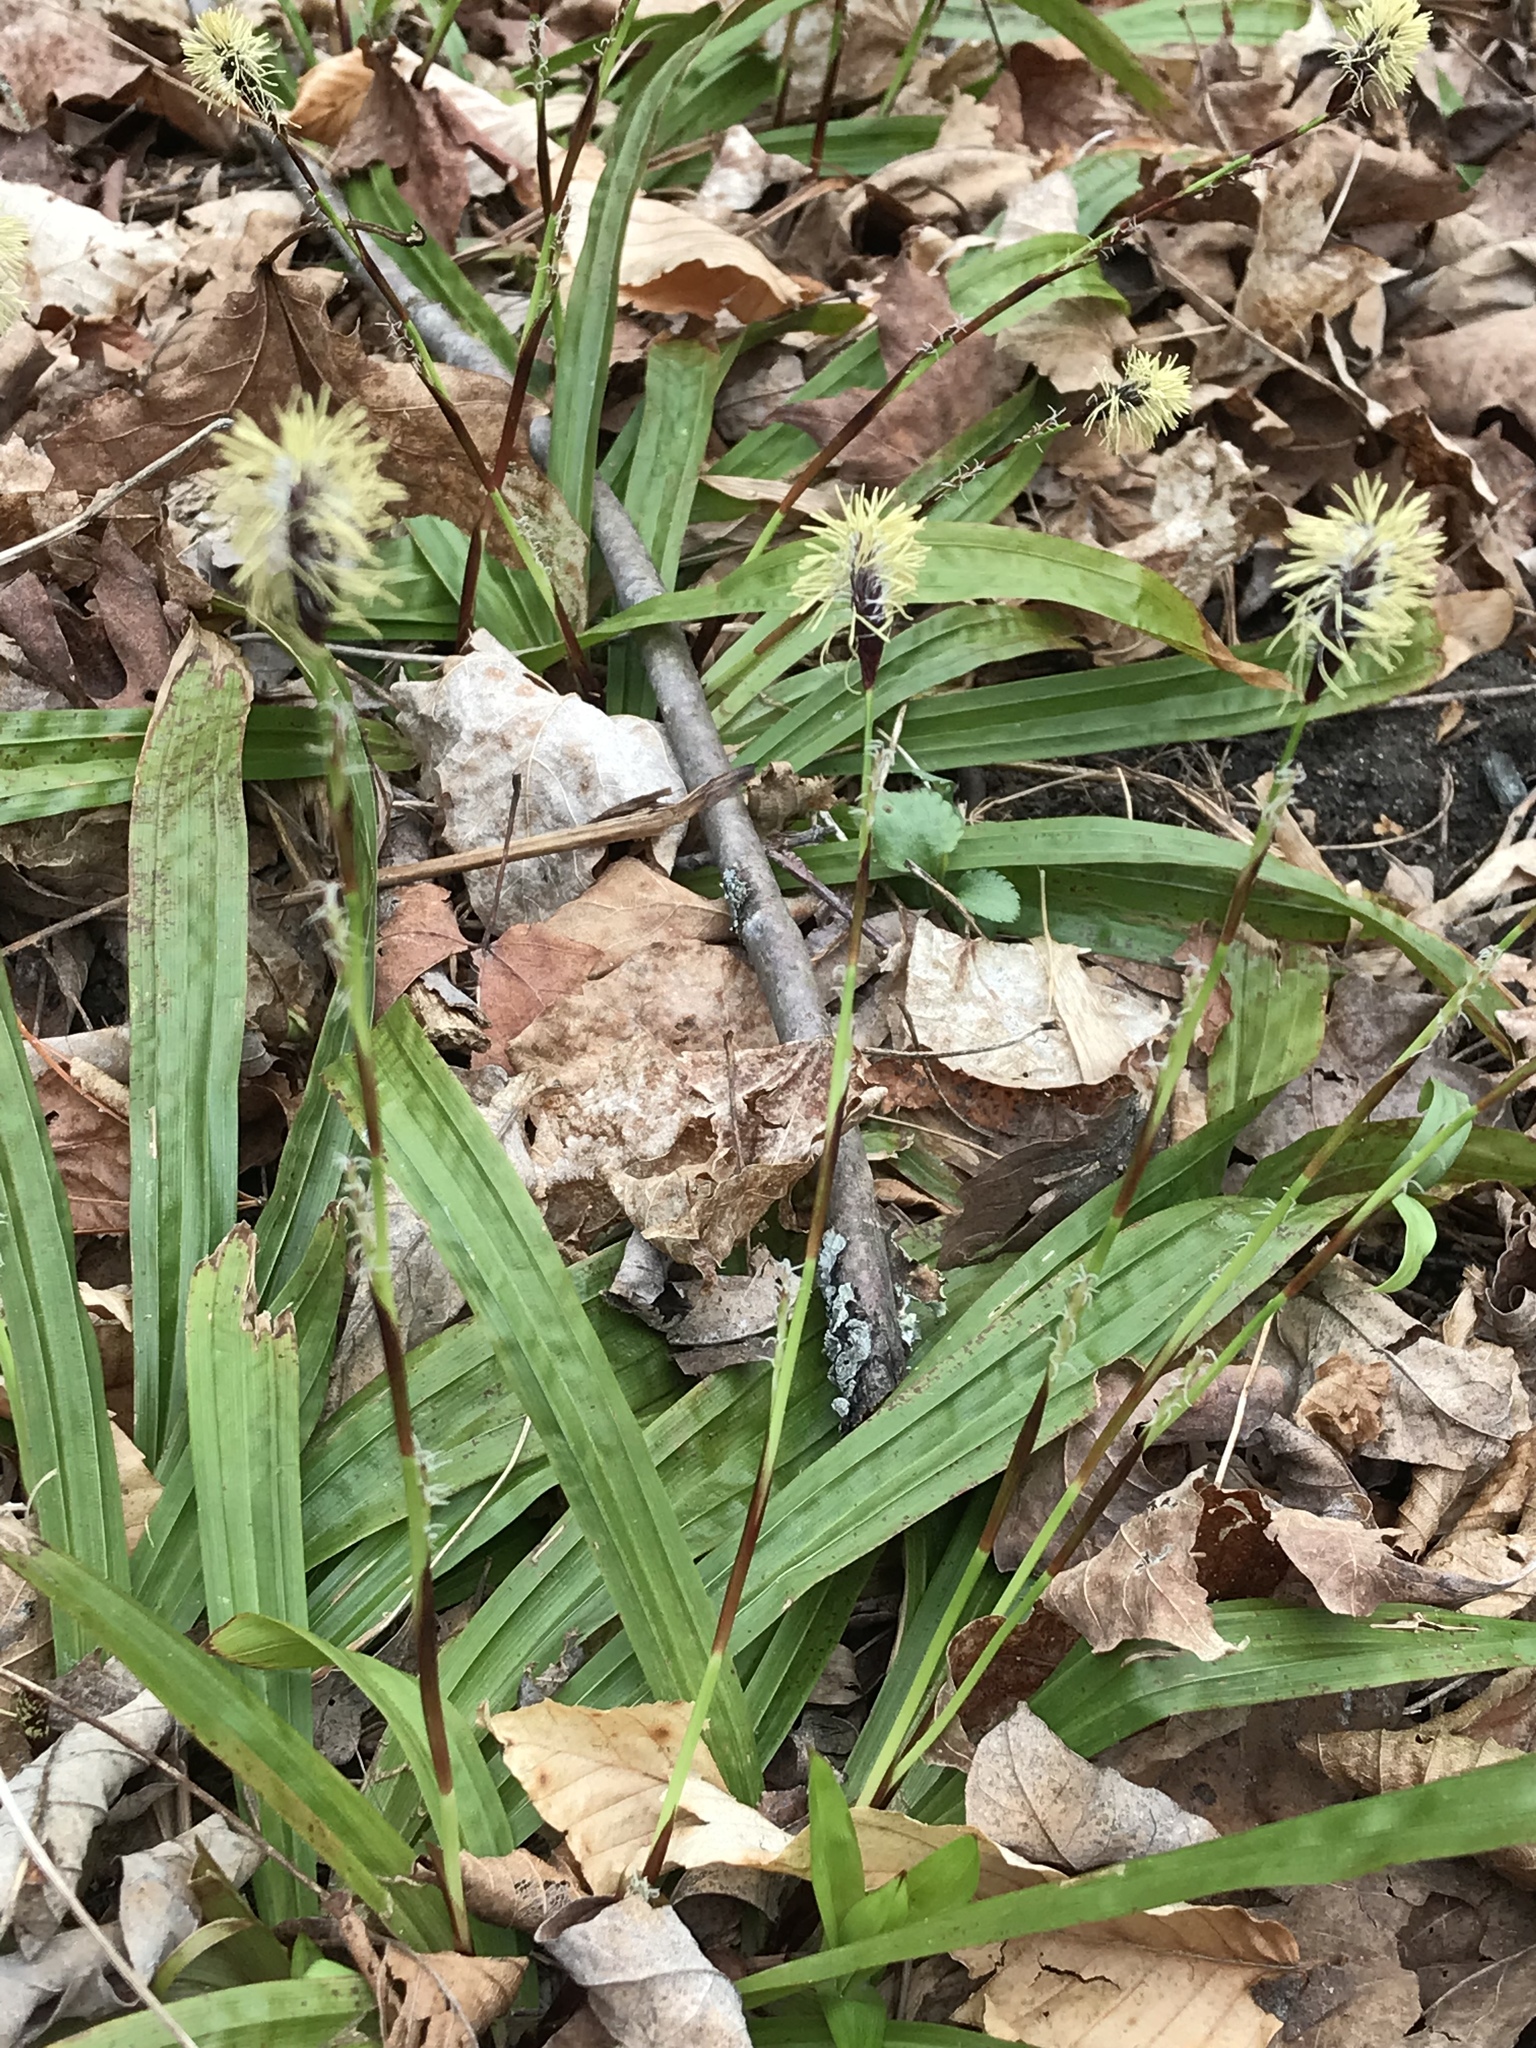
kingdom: Plantae
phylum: Tracheophyta
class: Liliopsida
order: Poales
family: Cyperaceae
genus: Carex
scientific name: Carex plantaginea
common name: Plantain-leaved sedge
